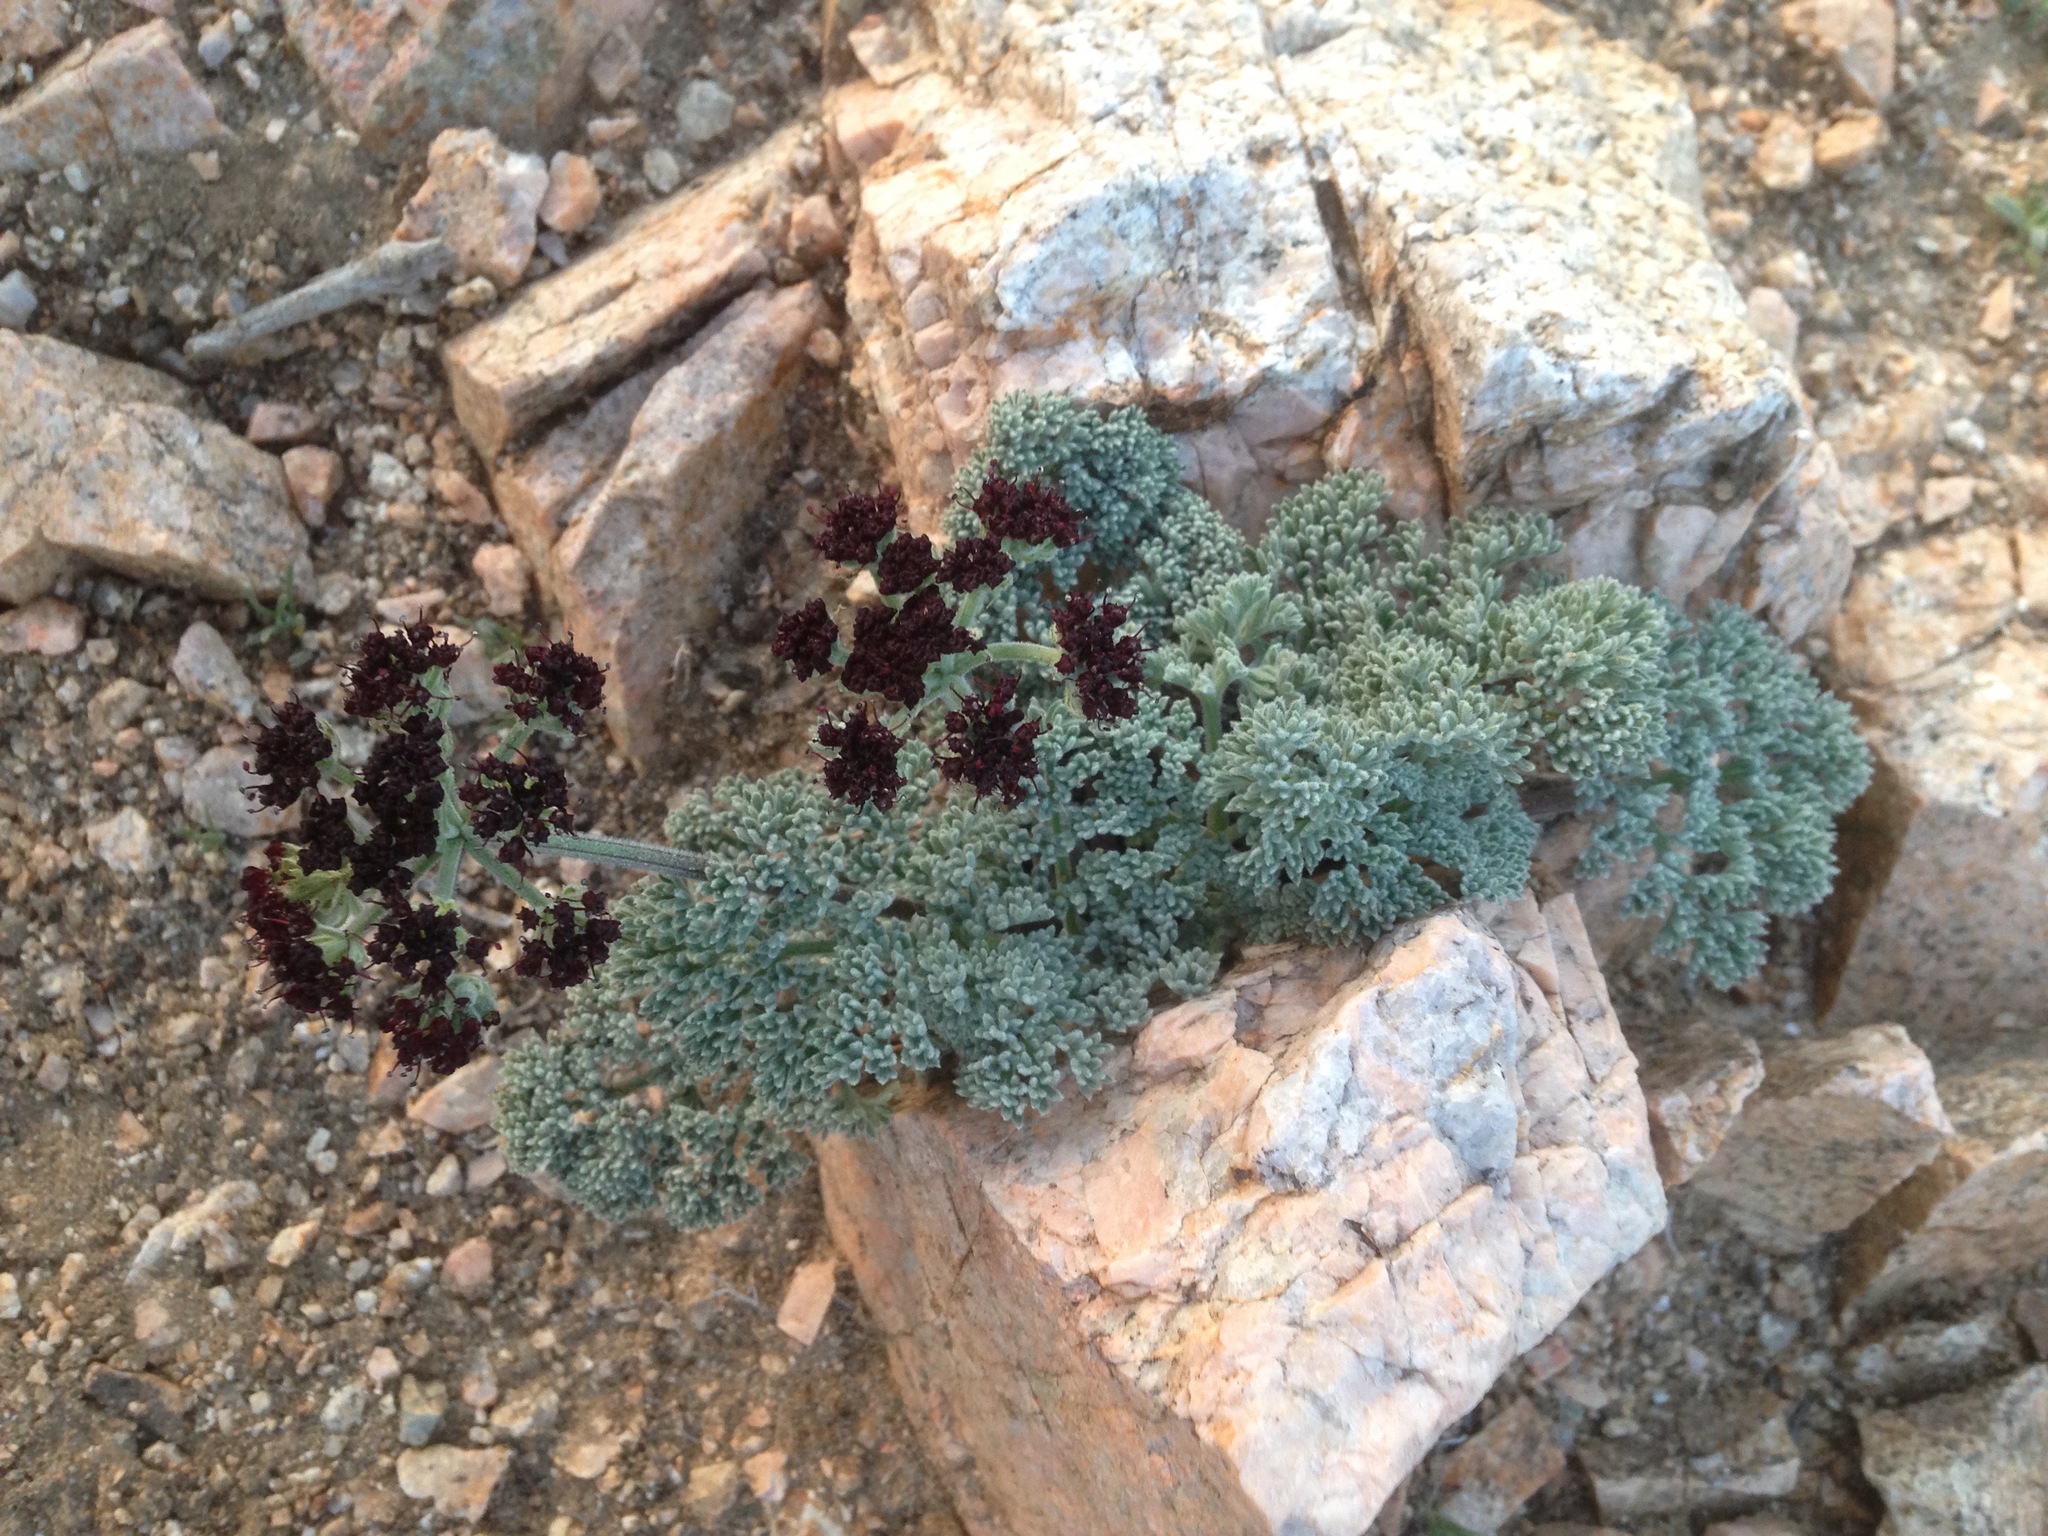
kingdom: Plantae
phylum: Tracheophyta
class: Magnoliopsida
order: Apiales
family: Apiaceae
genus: Lomatium
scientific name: Lomatium mohavense
